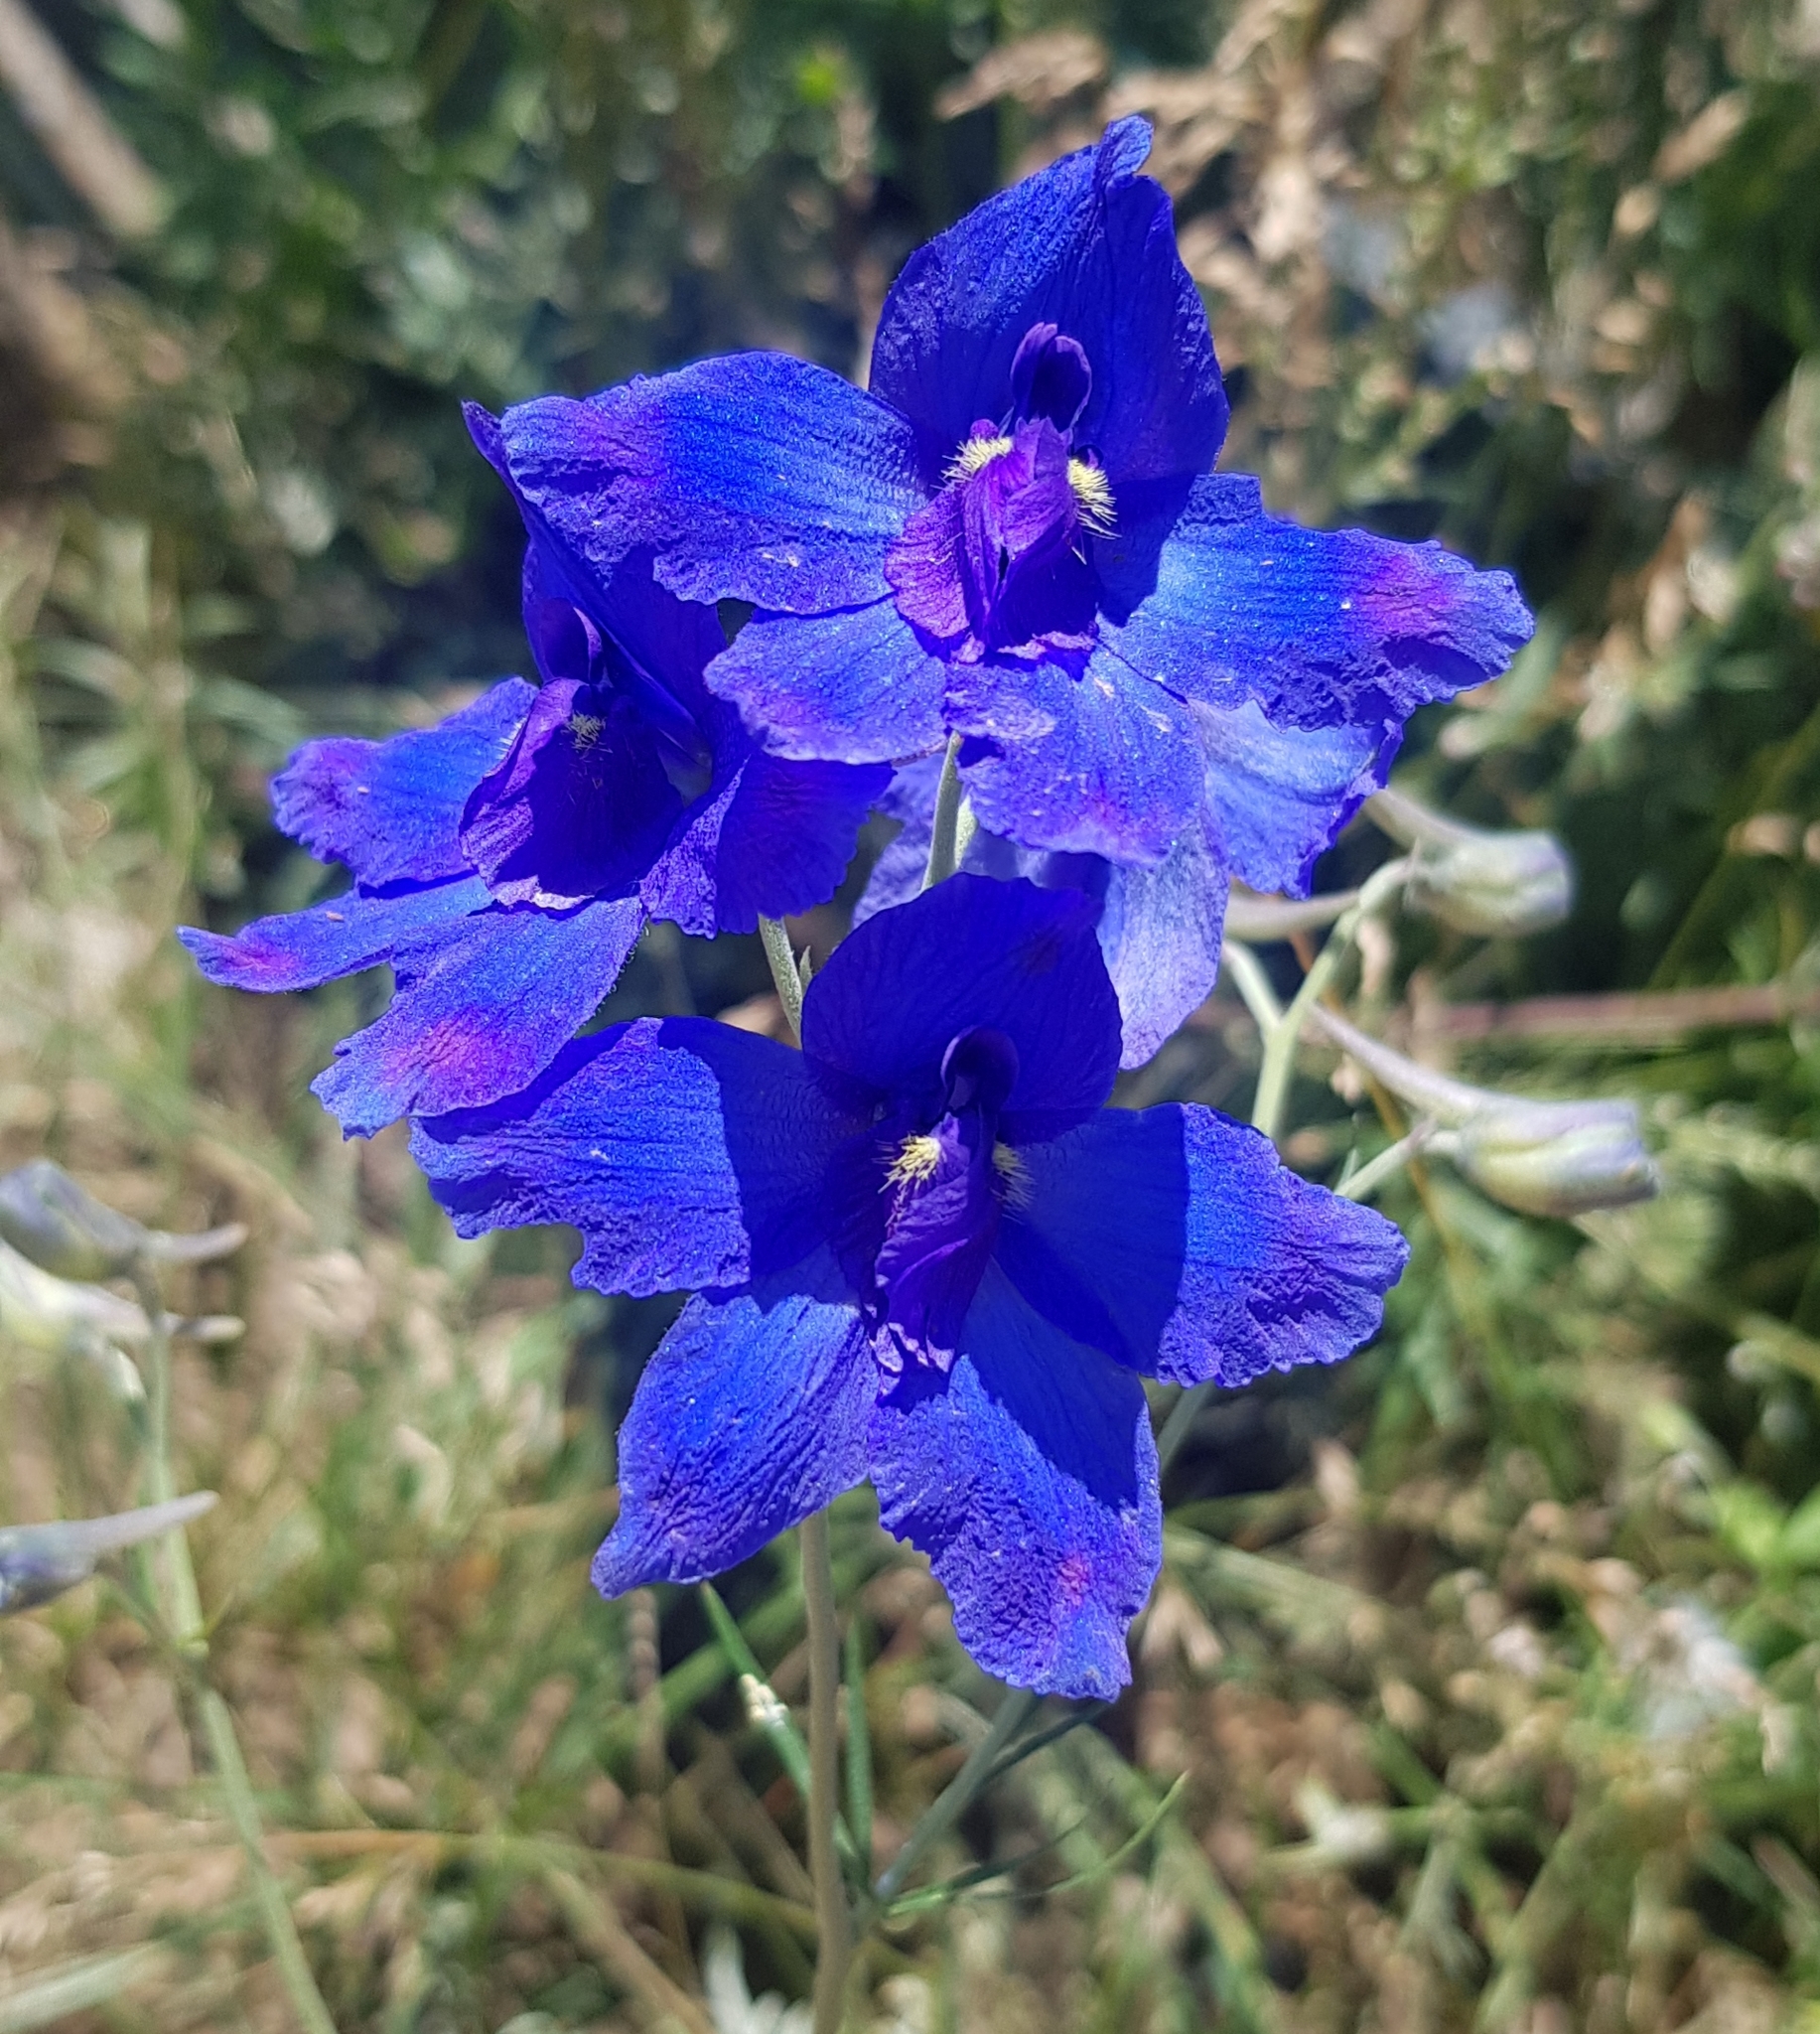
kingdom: Plantae
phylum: Tracheophyta
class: Magnoliopsida
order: Ranunculales
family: Ranunculaceae
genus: Delphinium
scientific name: Delphinium grandiflorum
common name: Siberian larkspur
